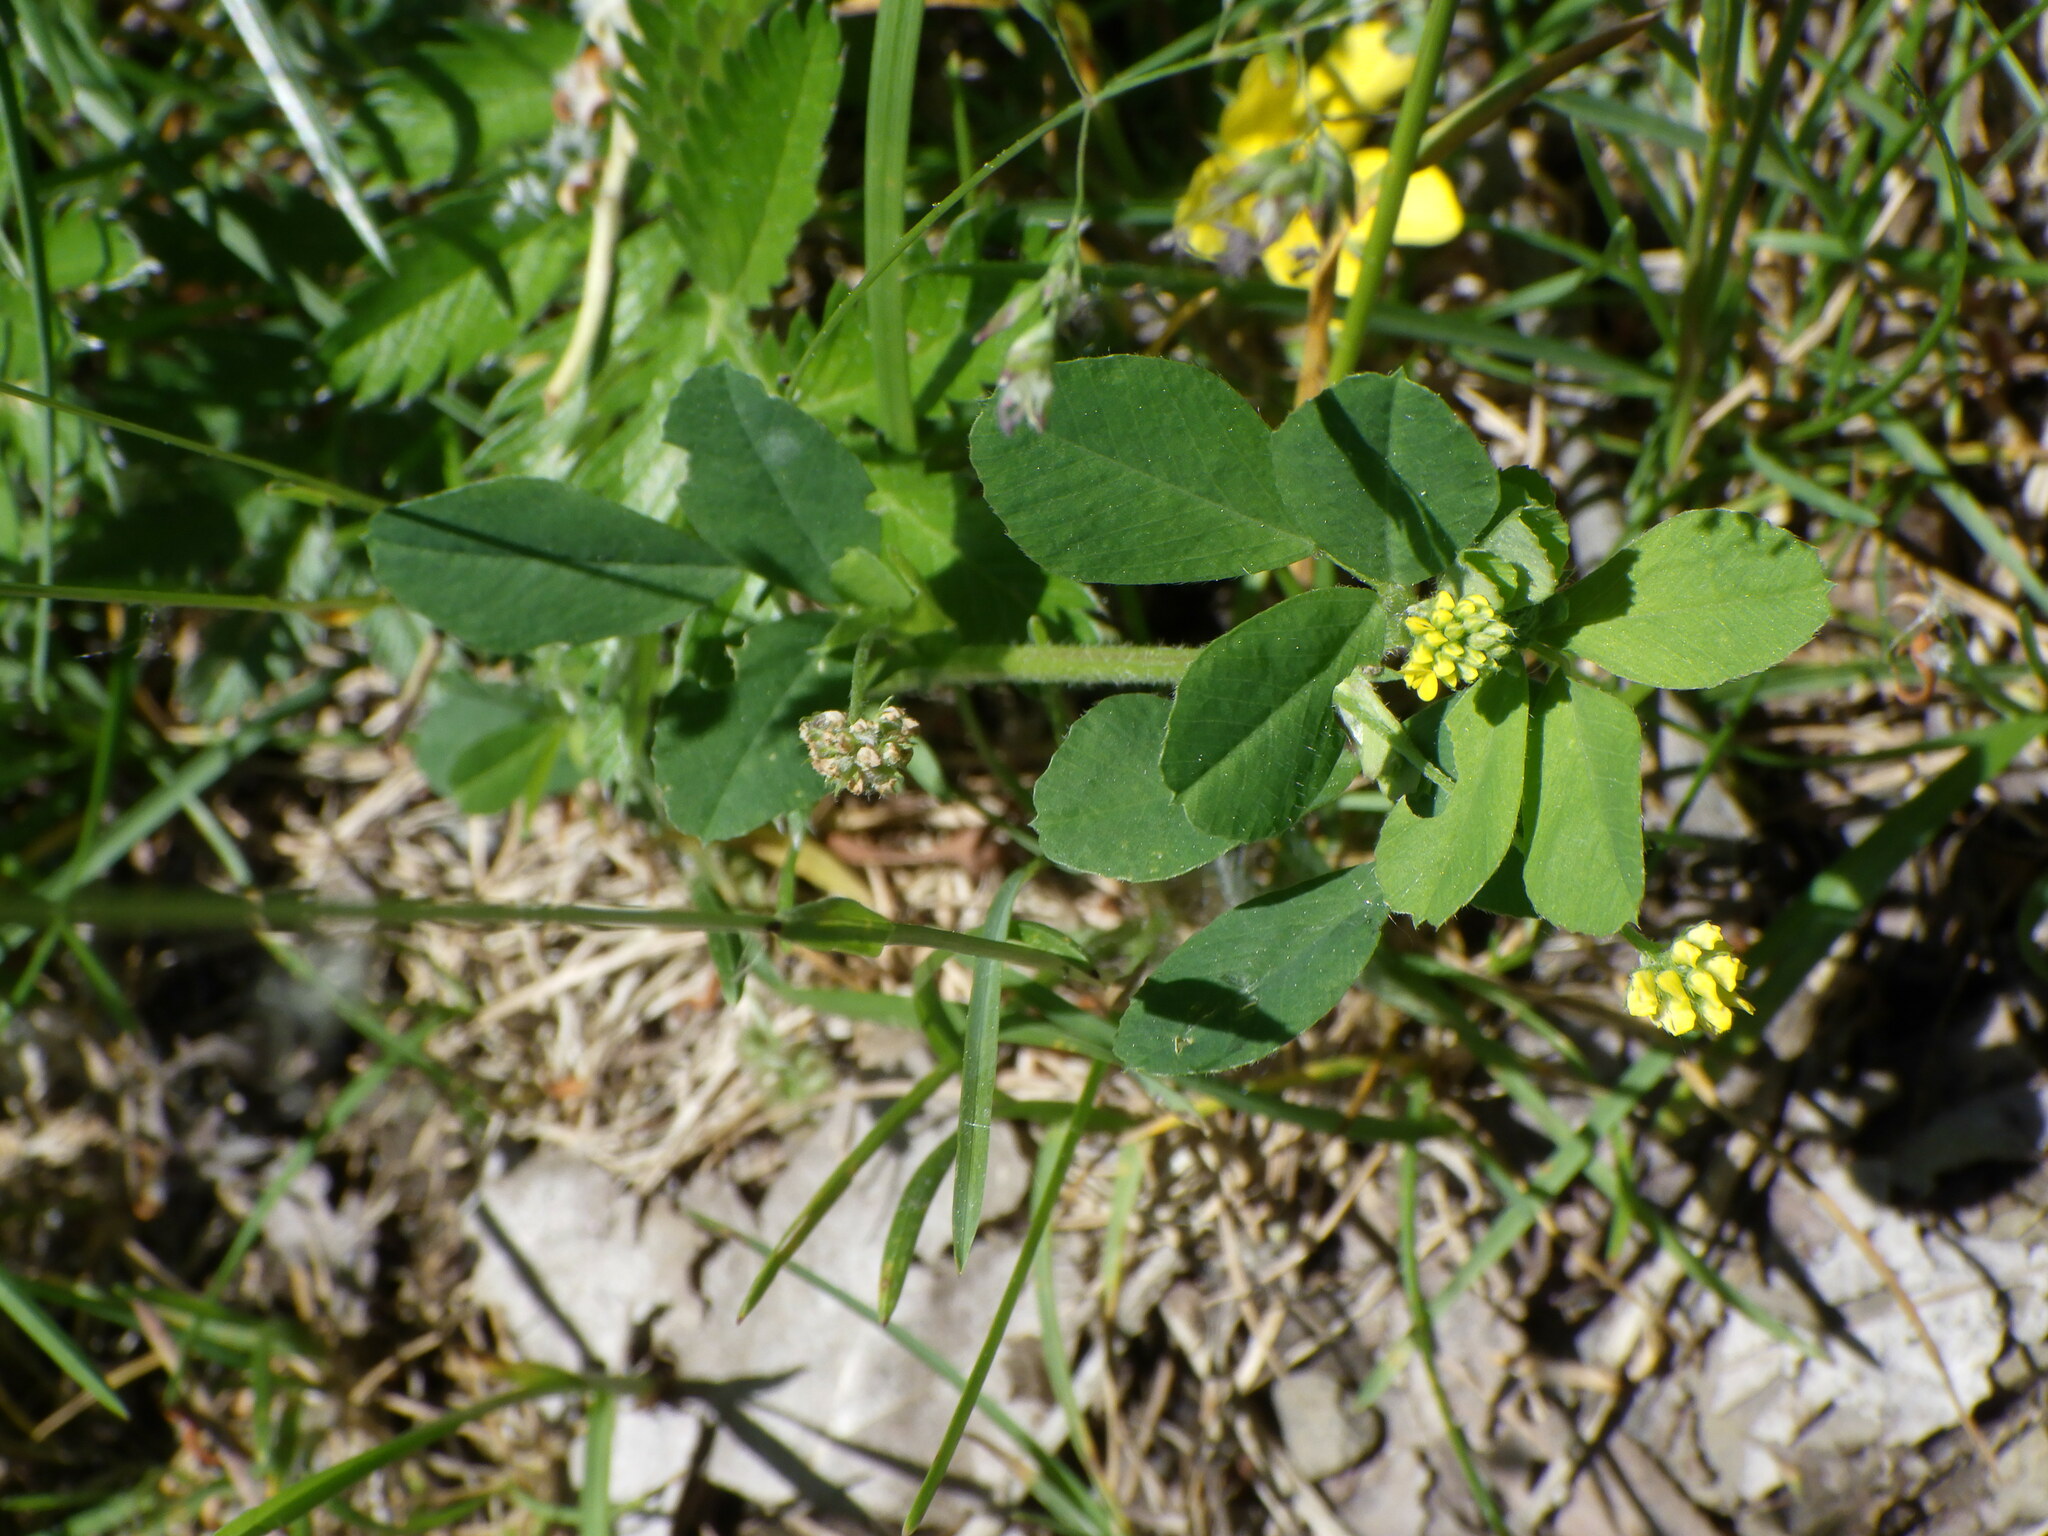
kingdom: Plantae
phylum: Tracheophyta
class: Magnoliopsida
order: Fabales
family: Fabaceae
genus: Medicago
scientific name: Medicago lupulina
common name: Black medick
